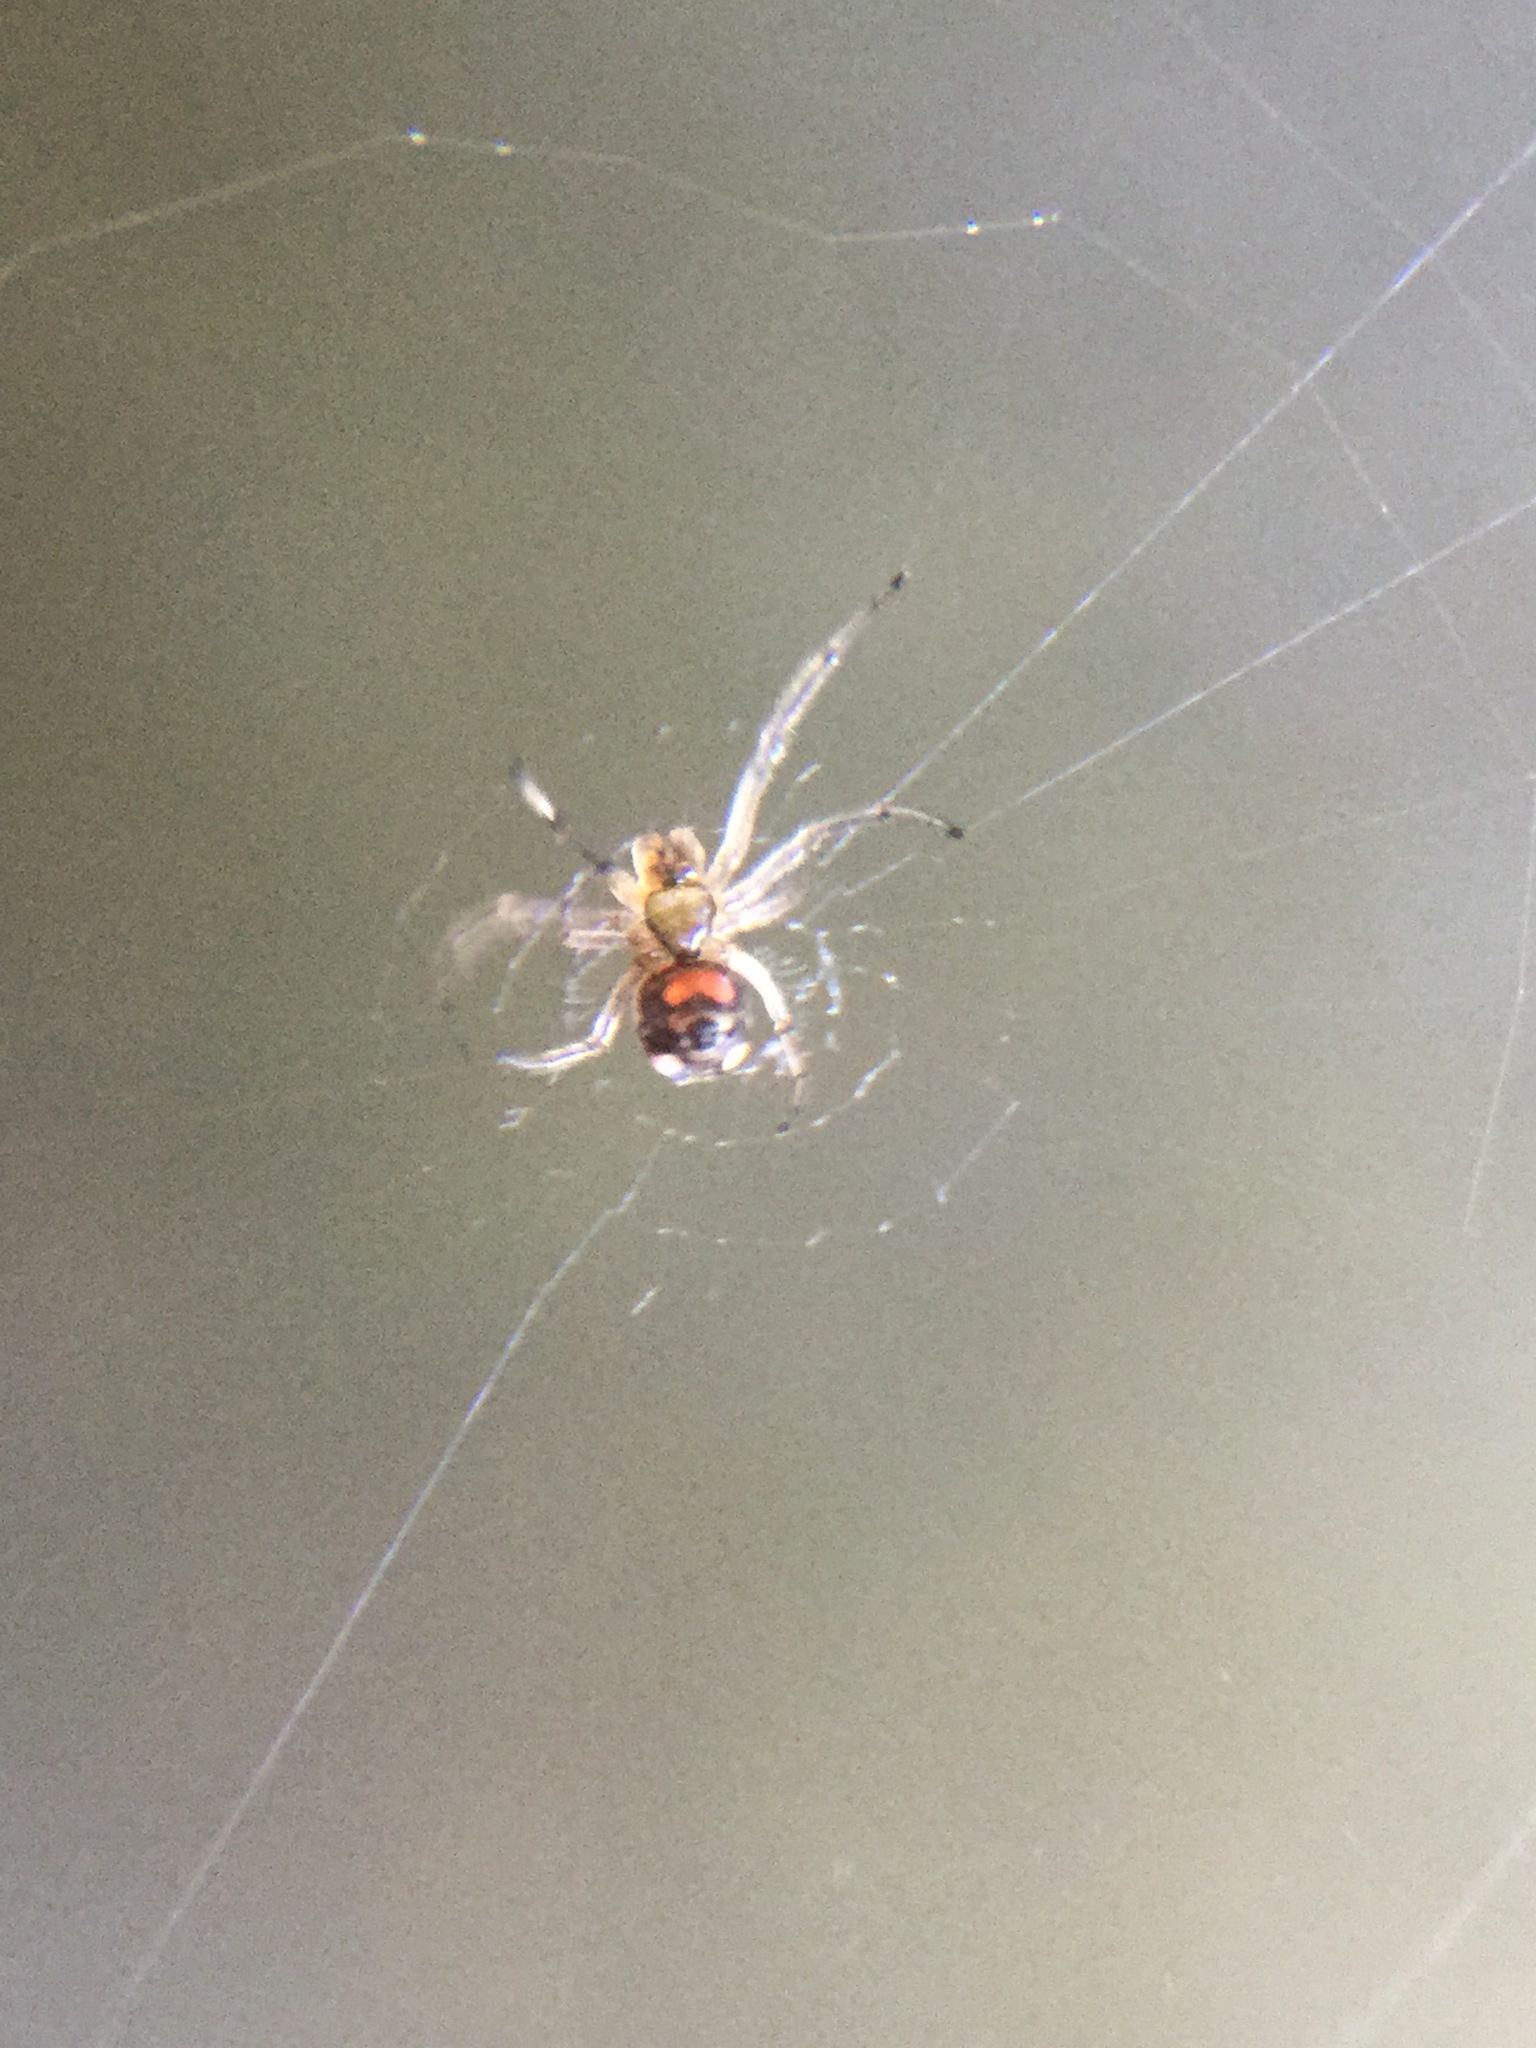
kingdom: Animalia
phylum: Arthropoda
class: Arachnida
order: Araneae
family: Tetragnathidae
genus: Leucauge
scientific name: Leucauge venusta
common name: Longjawed orb weavers
